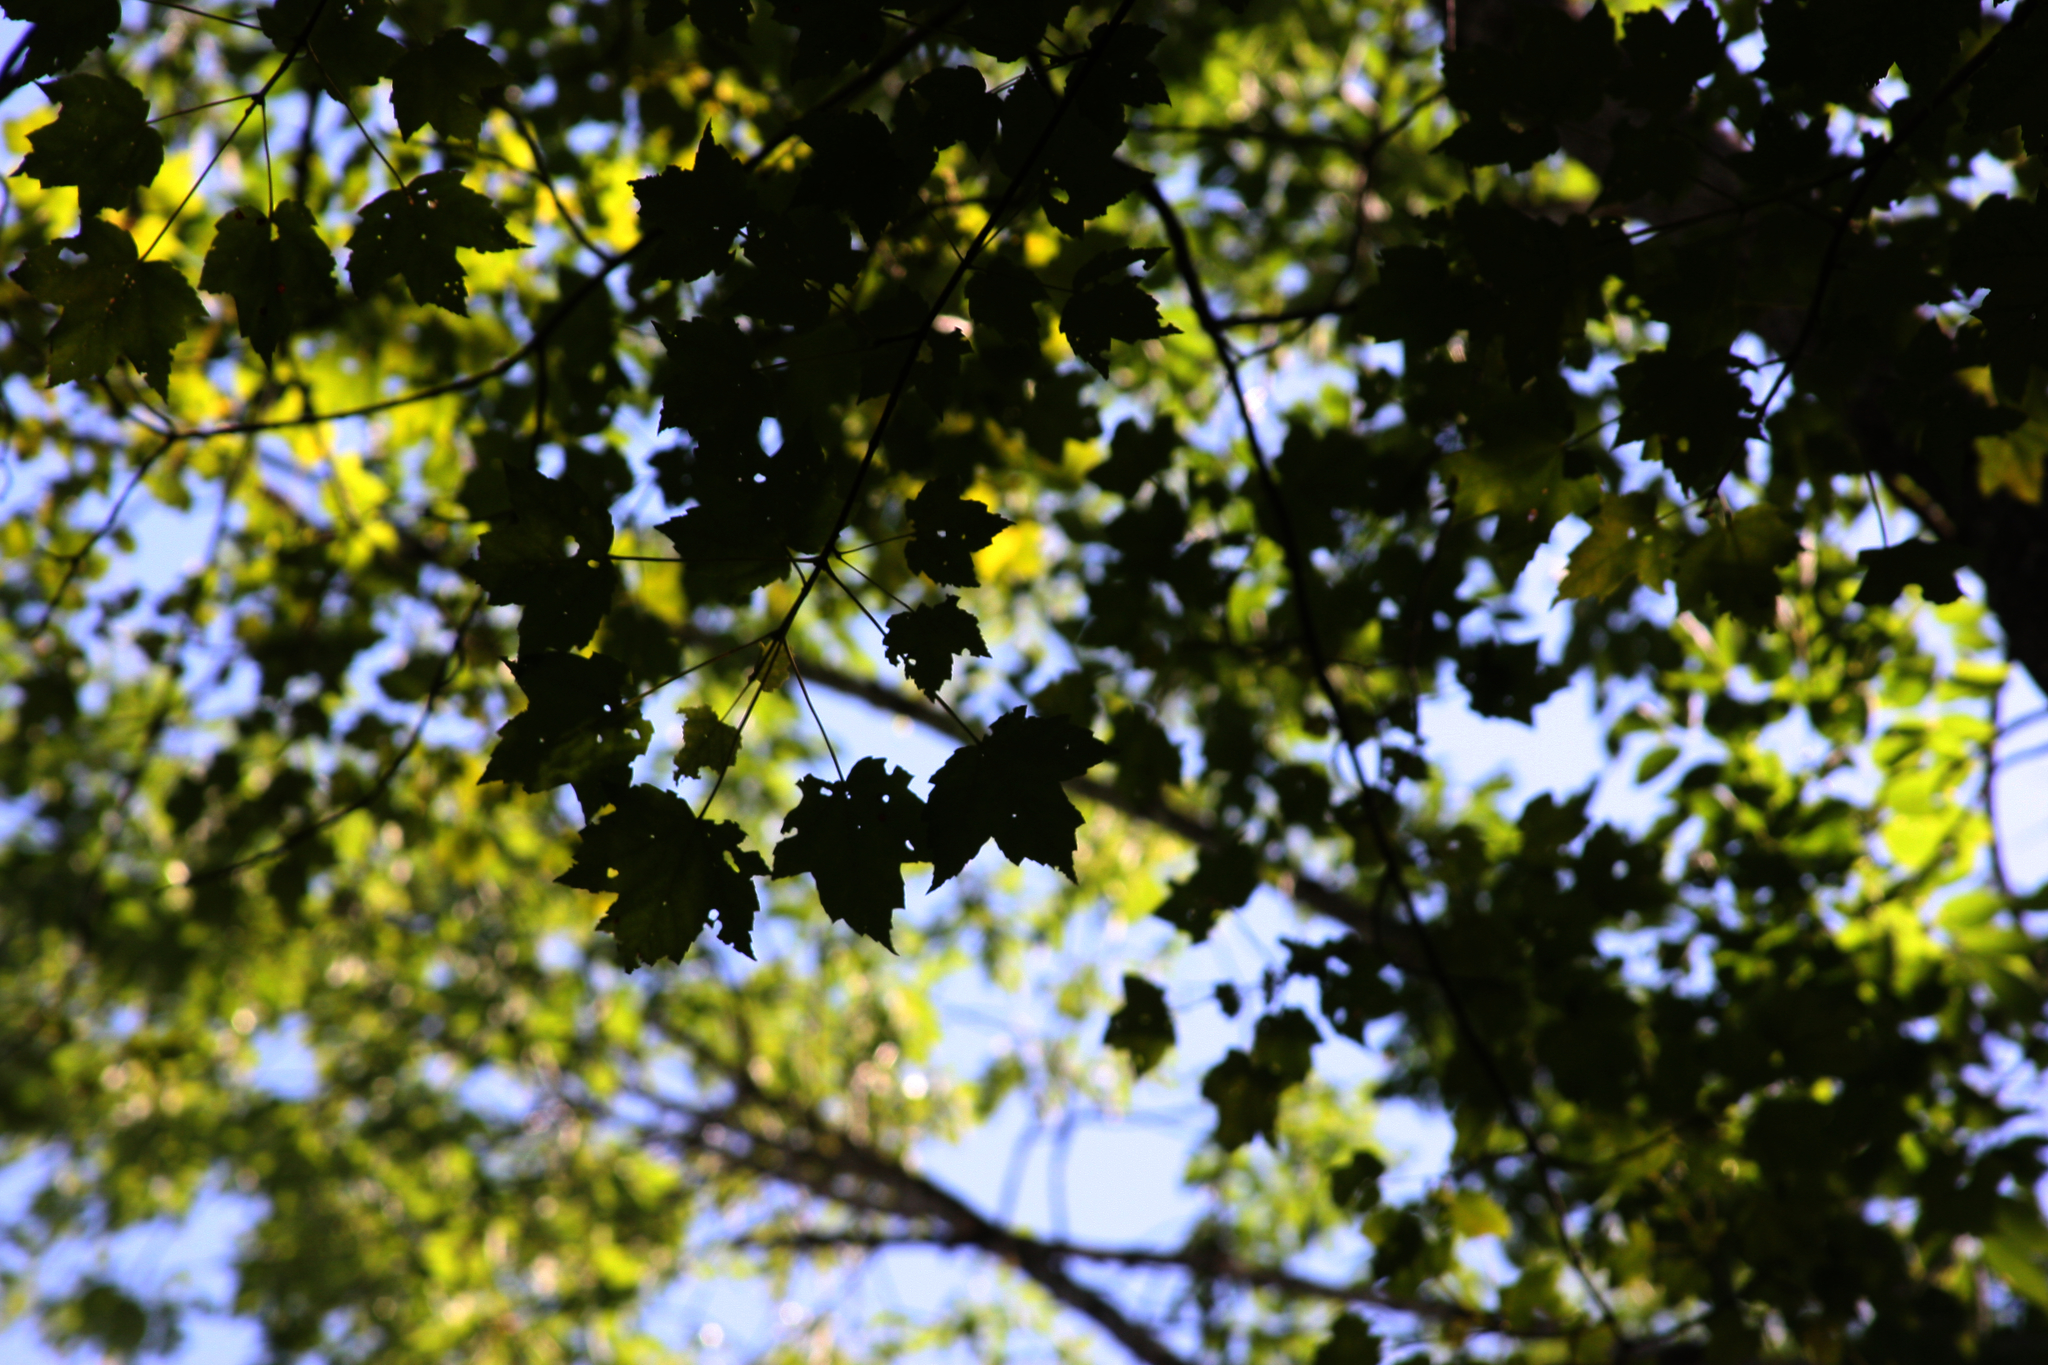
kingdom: Plantae
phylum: Tracheophyta
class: Magnoliopsida
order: Sapindales
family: Sapindaceae
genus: Acer
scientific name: Acer rubrum
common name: Red maple
